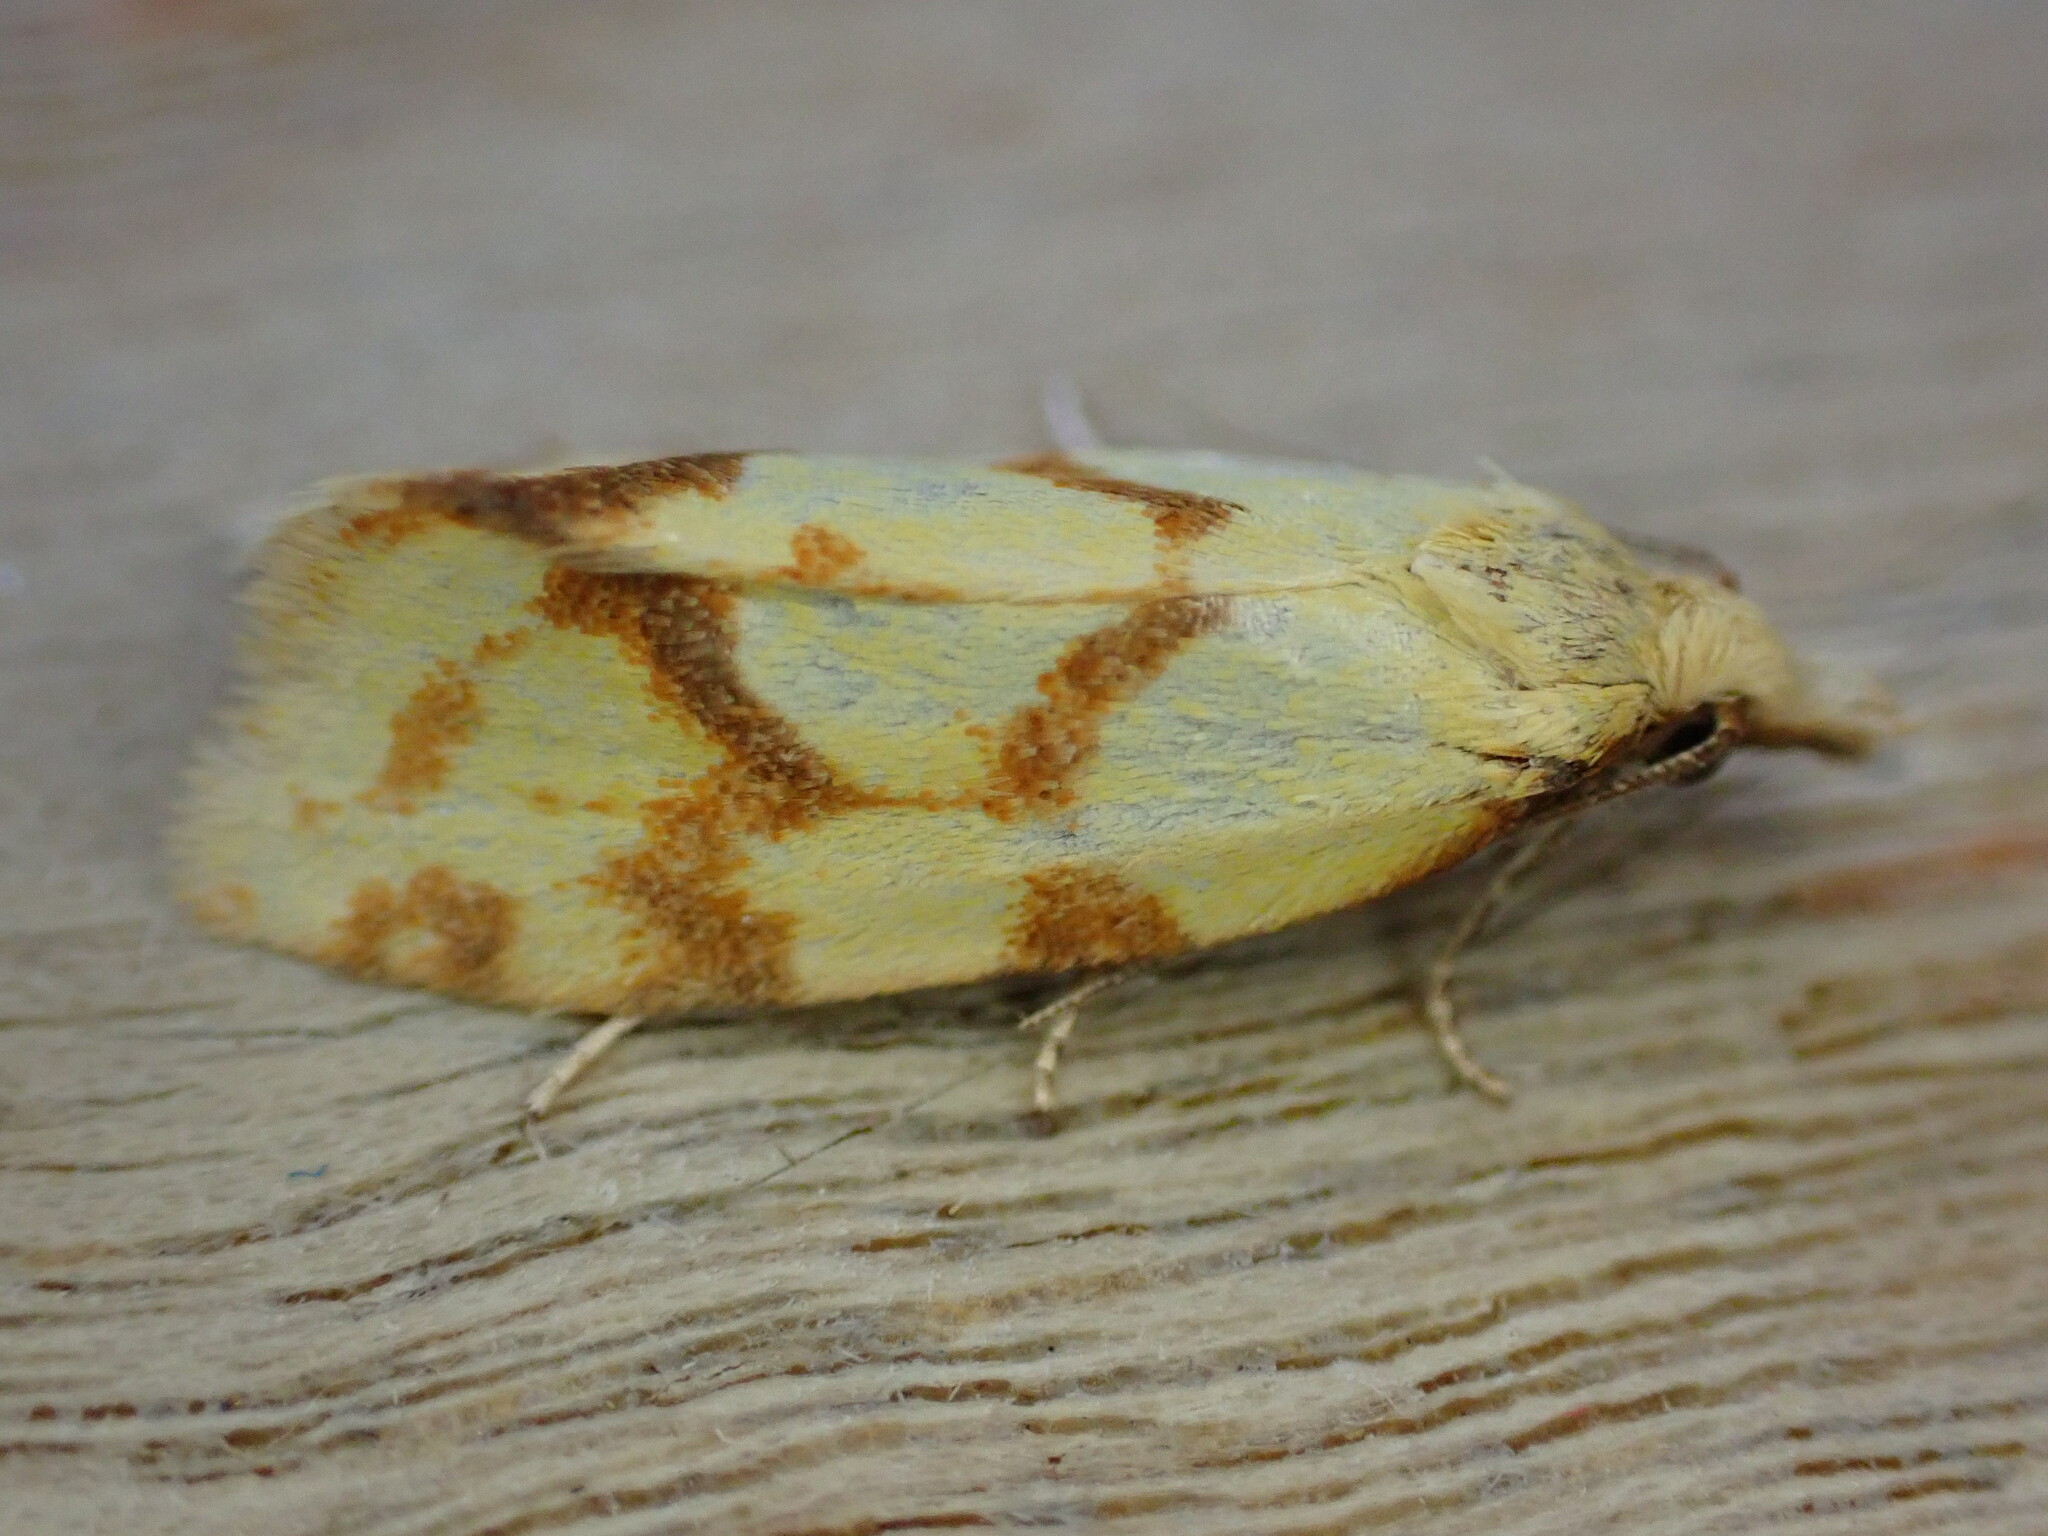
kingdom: Animalia
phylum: Arthropoda
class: Insecta
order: Lepidoptera
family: Tortricidae
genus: Agapeta
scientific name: Agapeta hamana
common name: Common yellow conch
